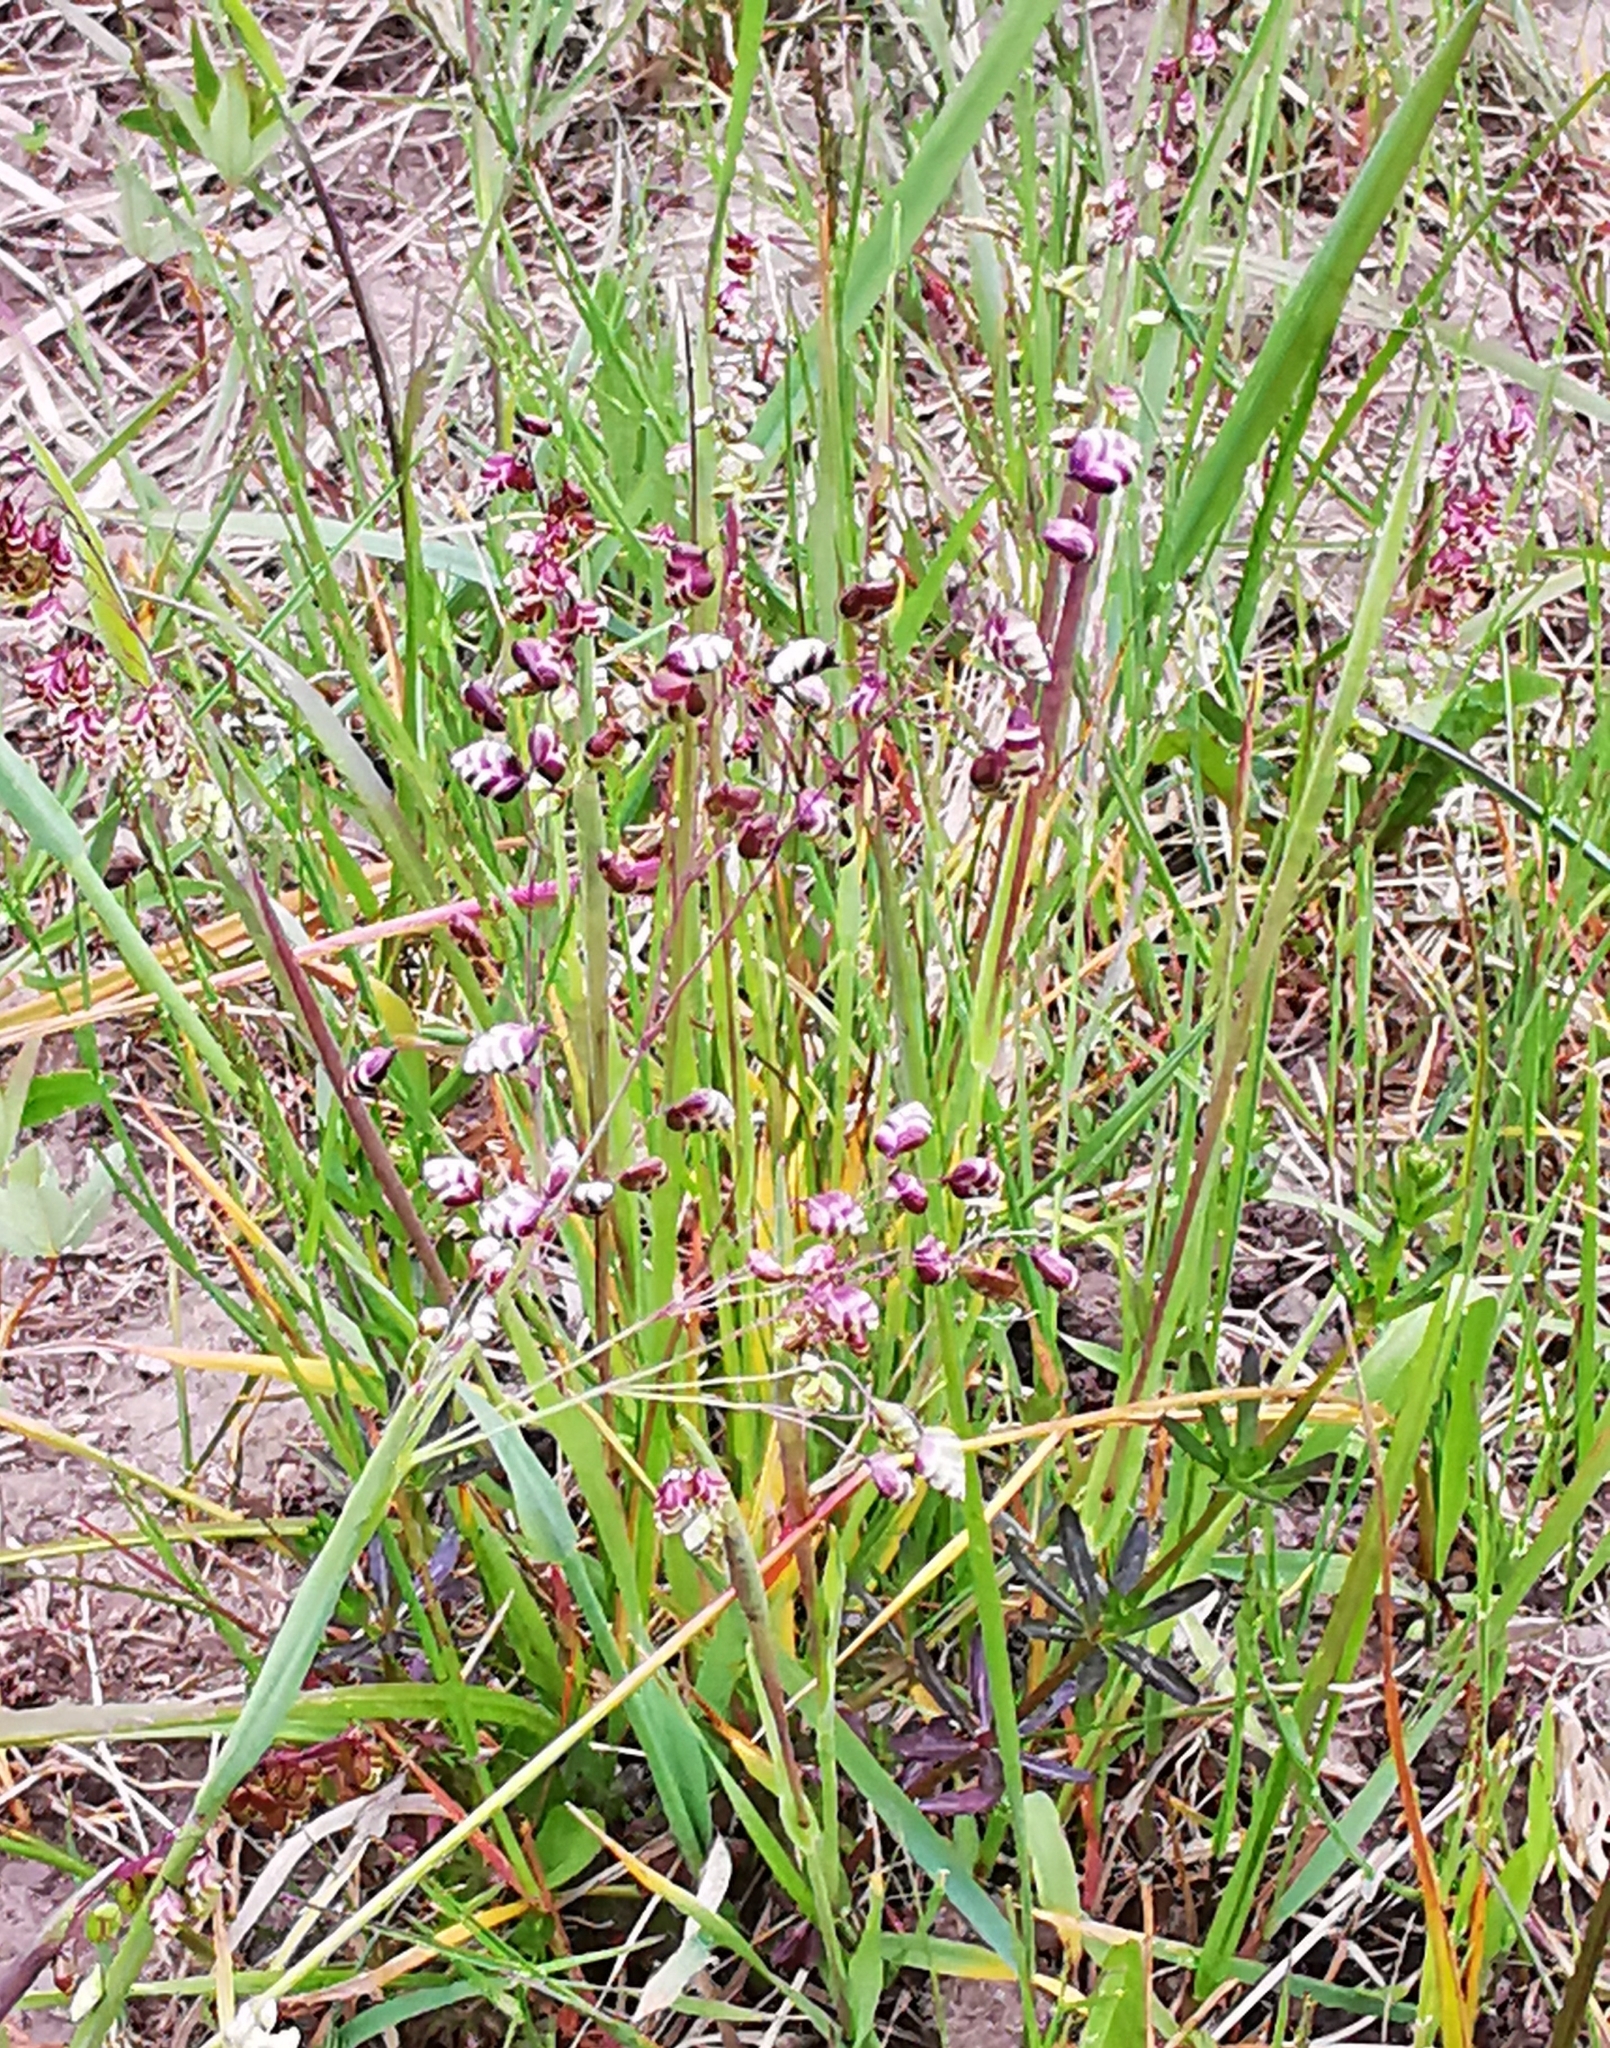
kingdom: Plantae
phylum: Tracheophyta
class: Liliopsida
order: Poales
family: Poaceae
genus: Briza
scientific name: Briza media
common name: Quaking grass
